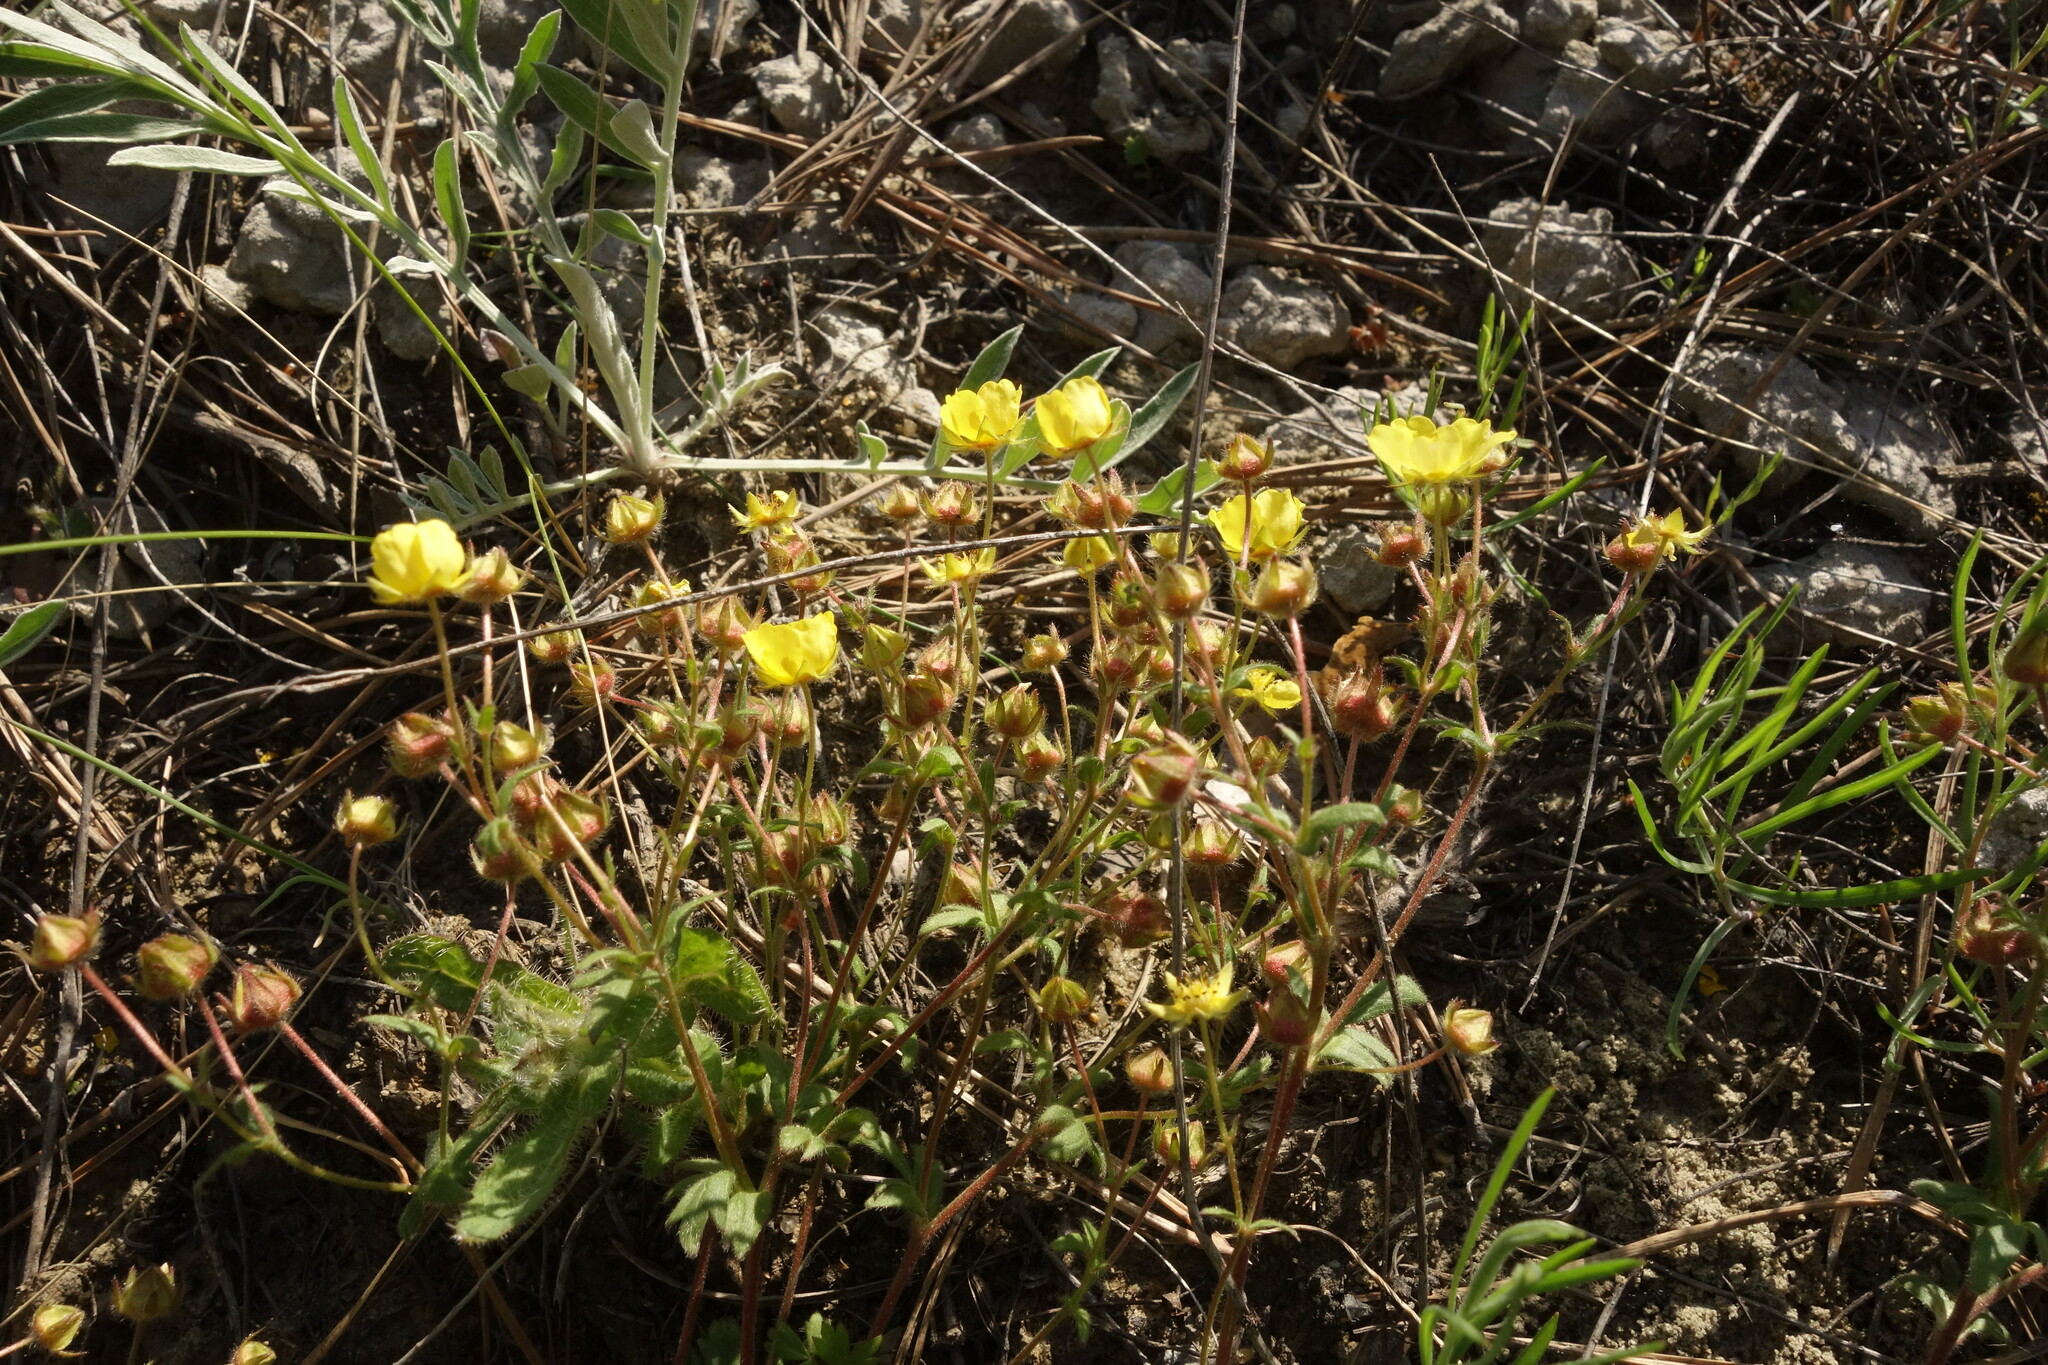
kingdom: Plantae
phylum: Tracheophyta
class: Magnoliopsida
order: Rosales
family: Rosaceae
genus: Potentilla
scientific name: Potentilla humifusa
